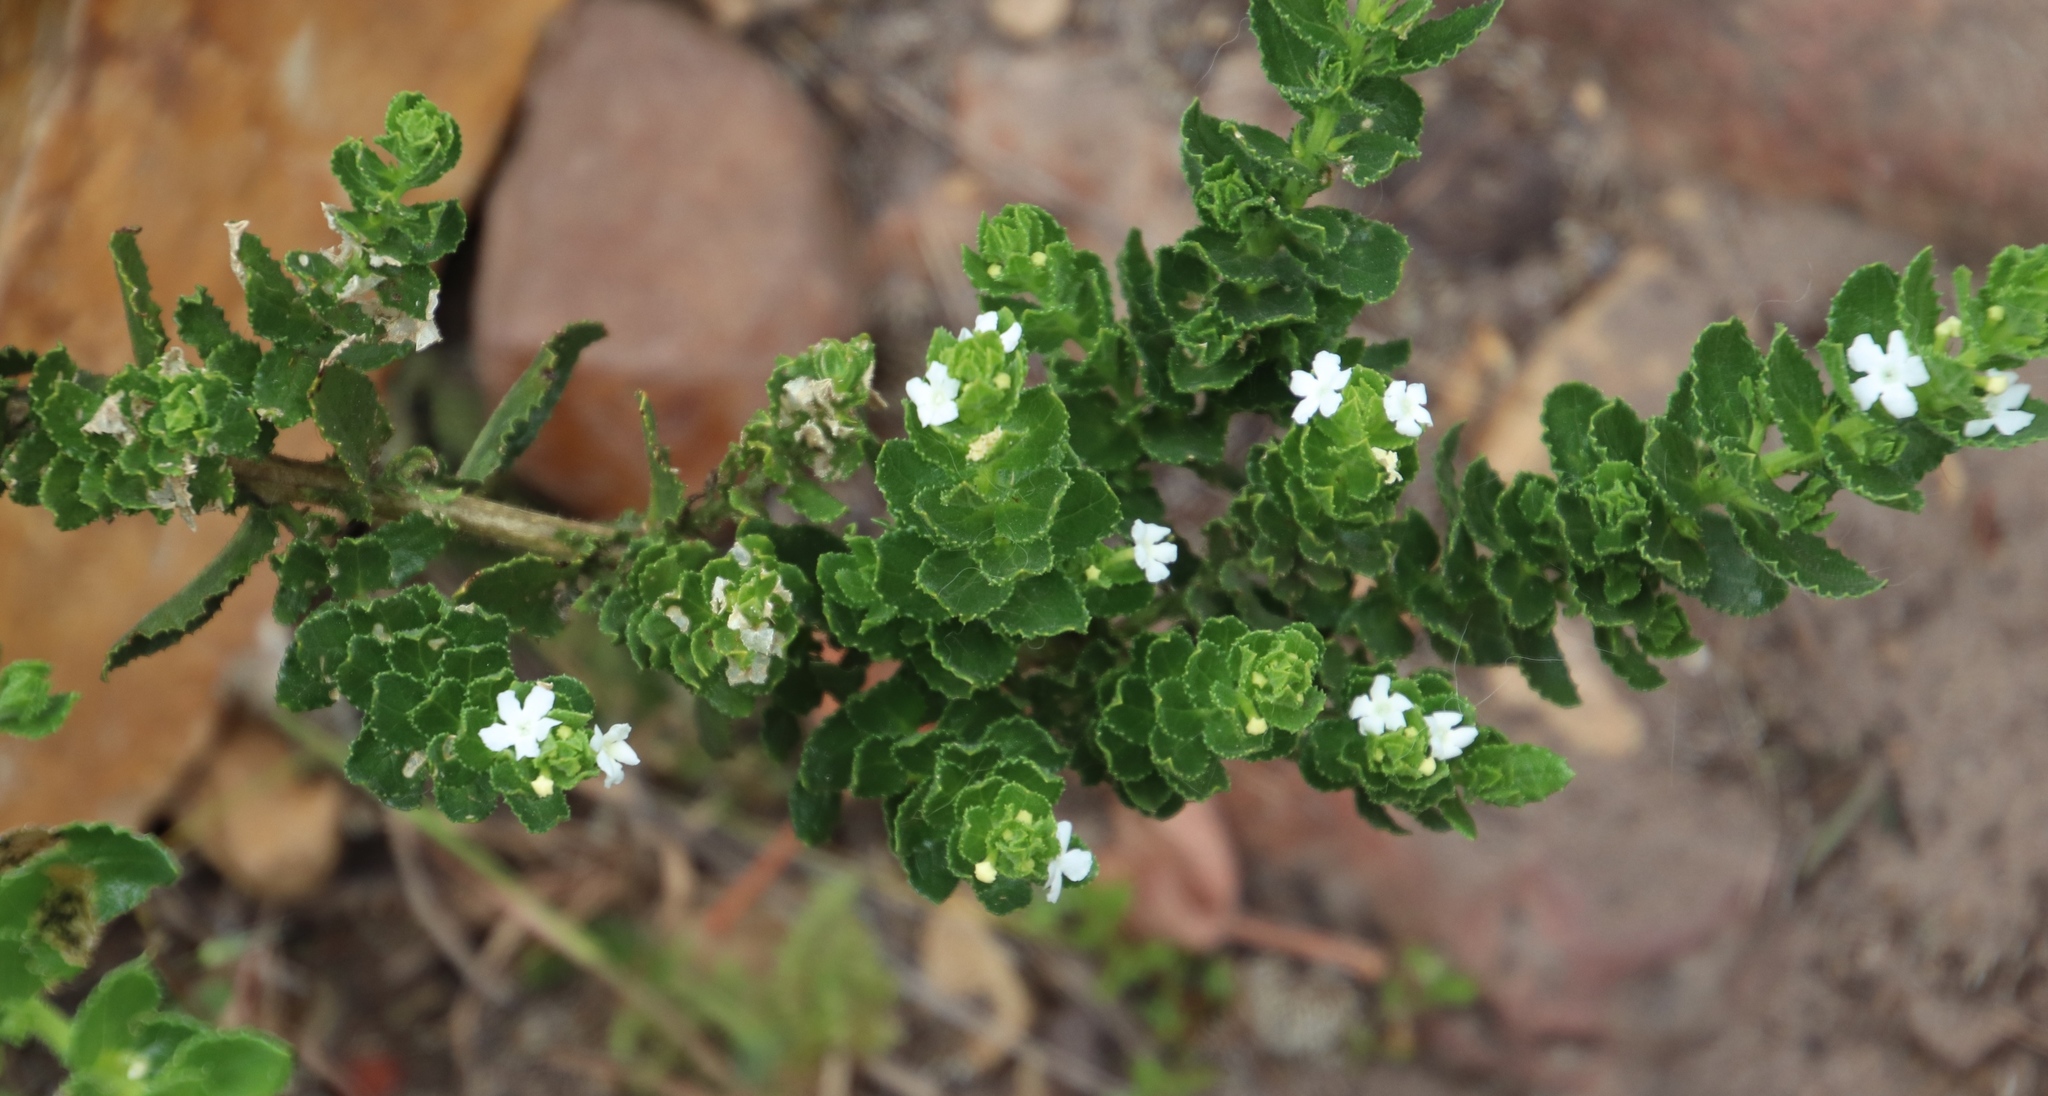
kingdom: Plantae
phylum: Tracheophyta
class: Magnoliopsida
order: Lamiales
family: Scrophulariaceae
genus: Oftia
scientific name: Oftia africana
